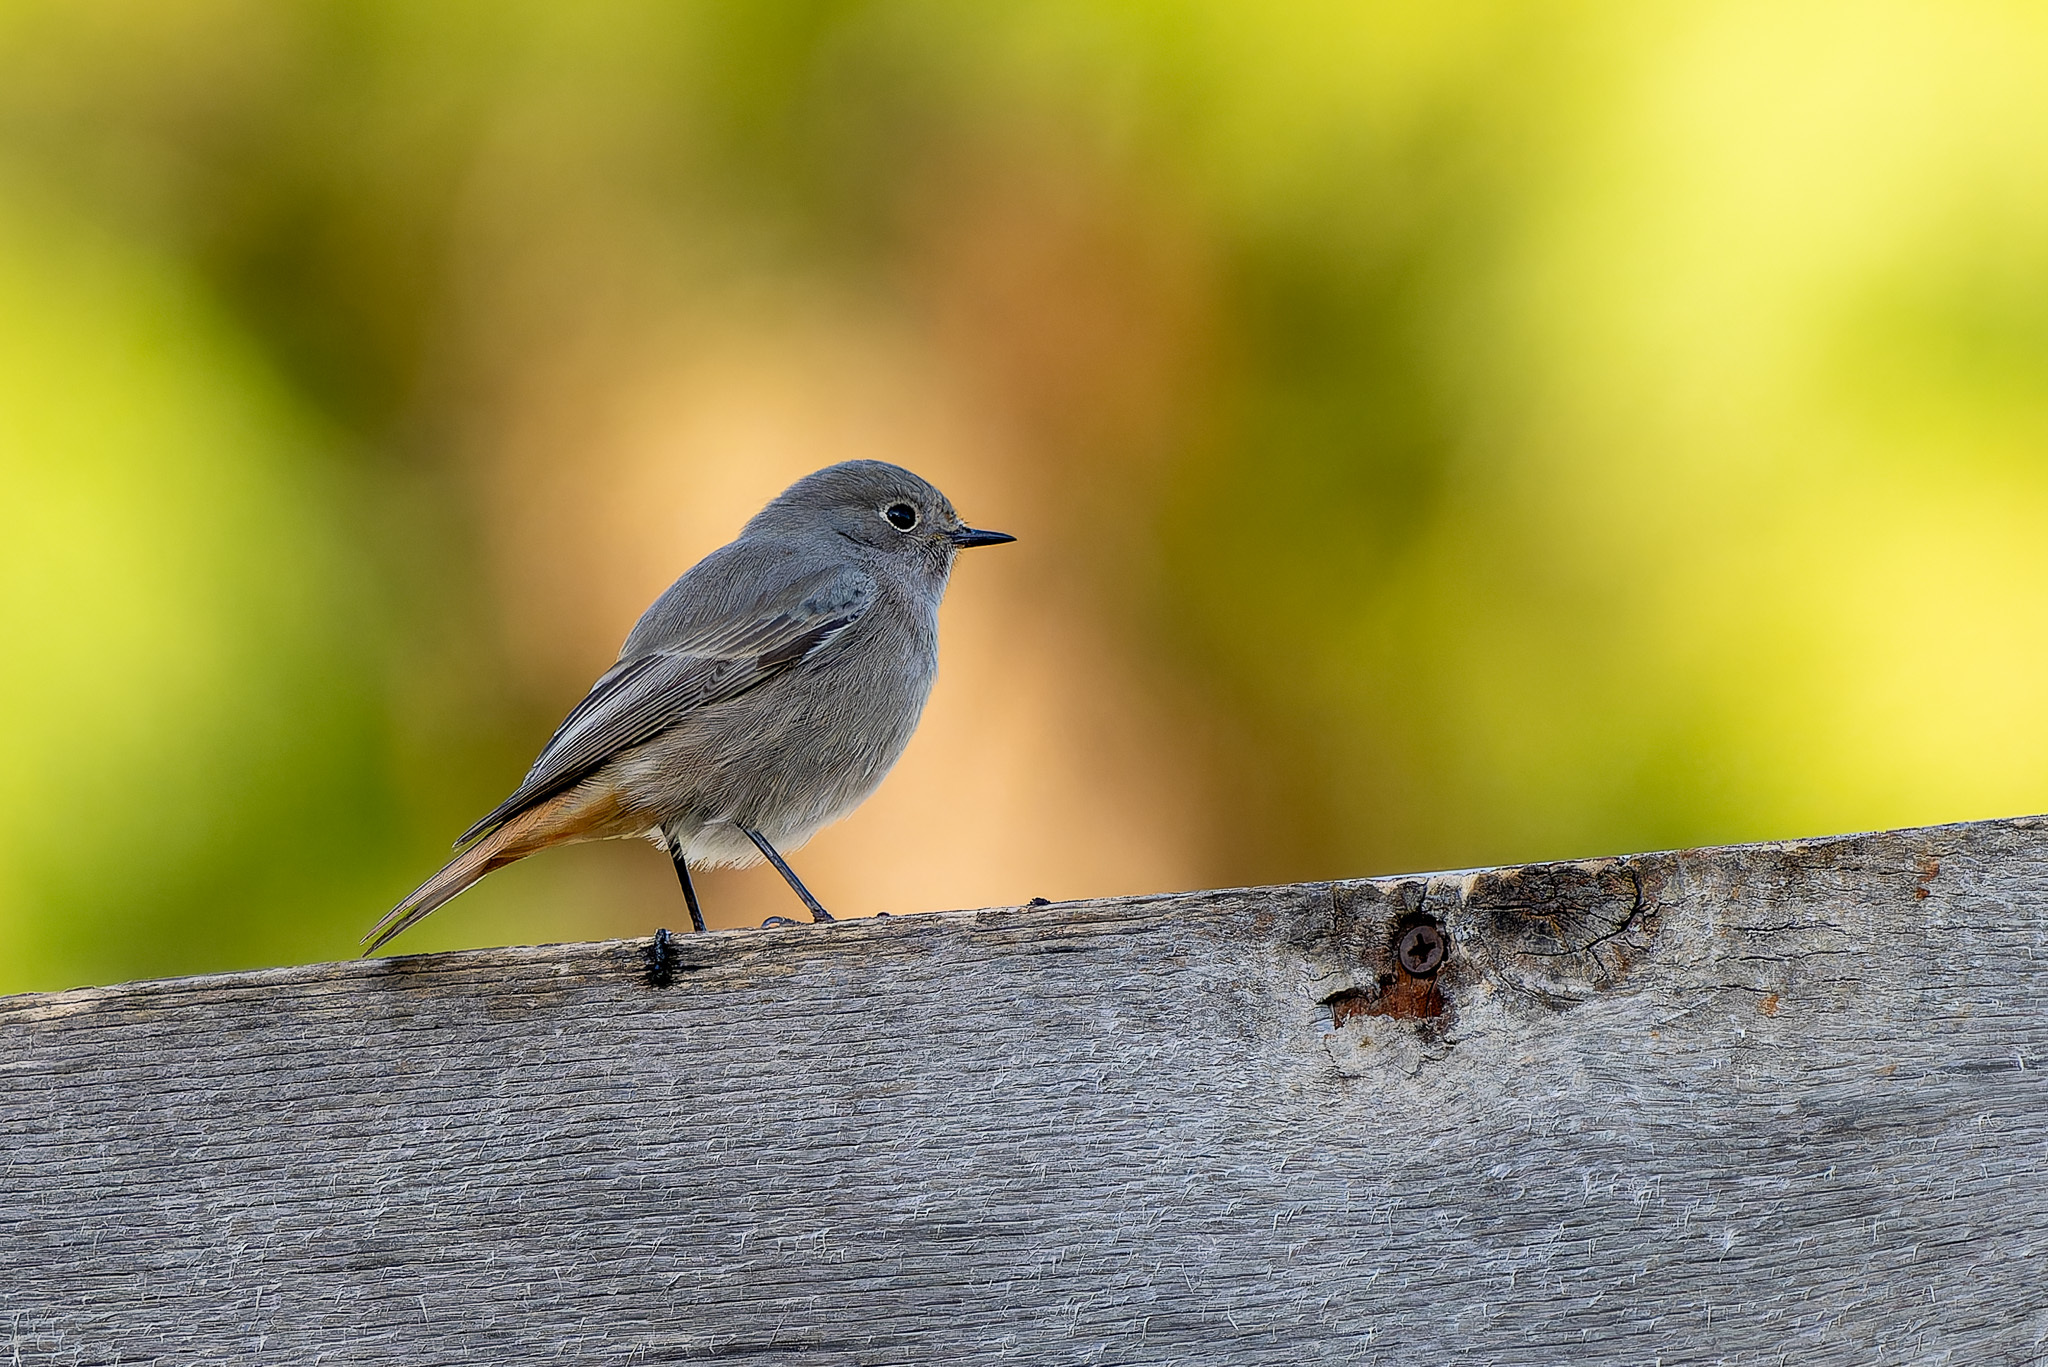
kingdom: Animalia
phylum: Chordata
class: Aves
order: Passeriformes
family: Muscicapidae
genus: Phoenicurus
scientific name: Phoenicurus ochruros
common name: Black redstart
